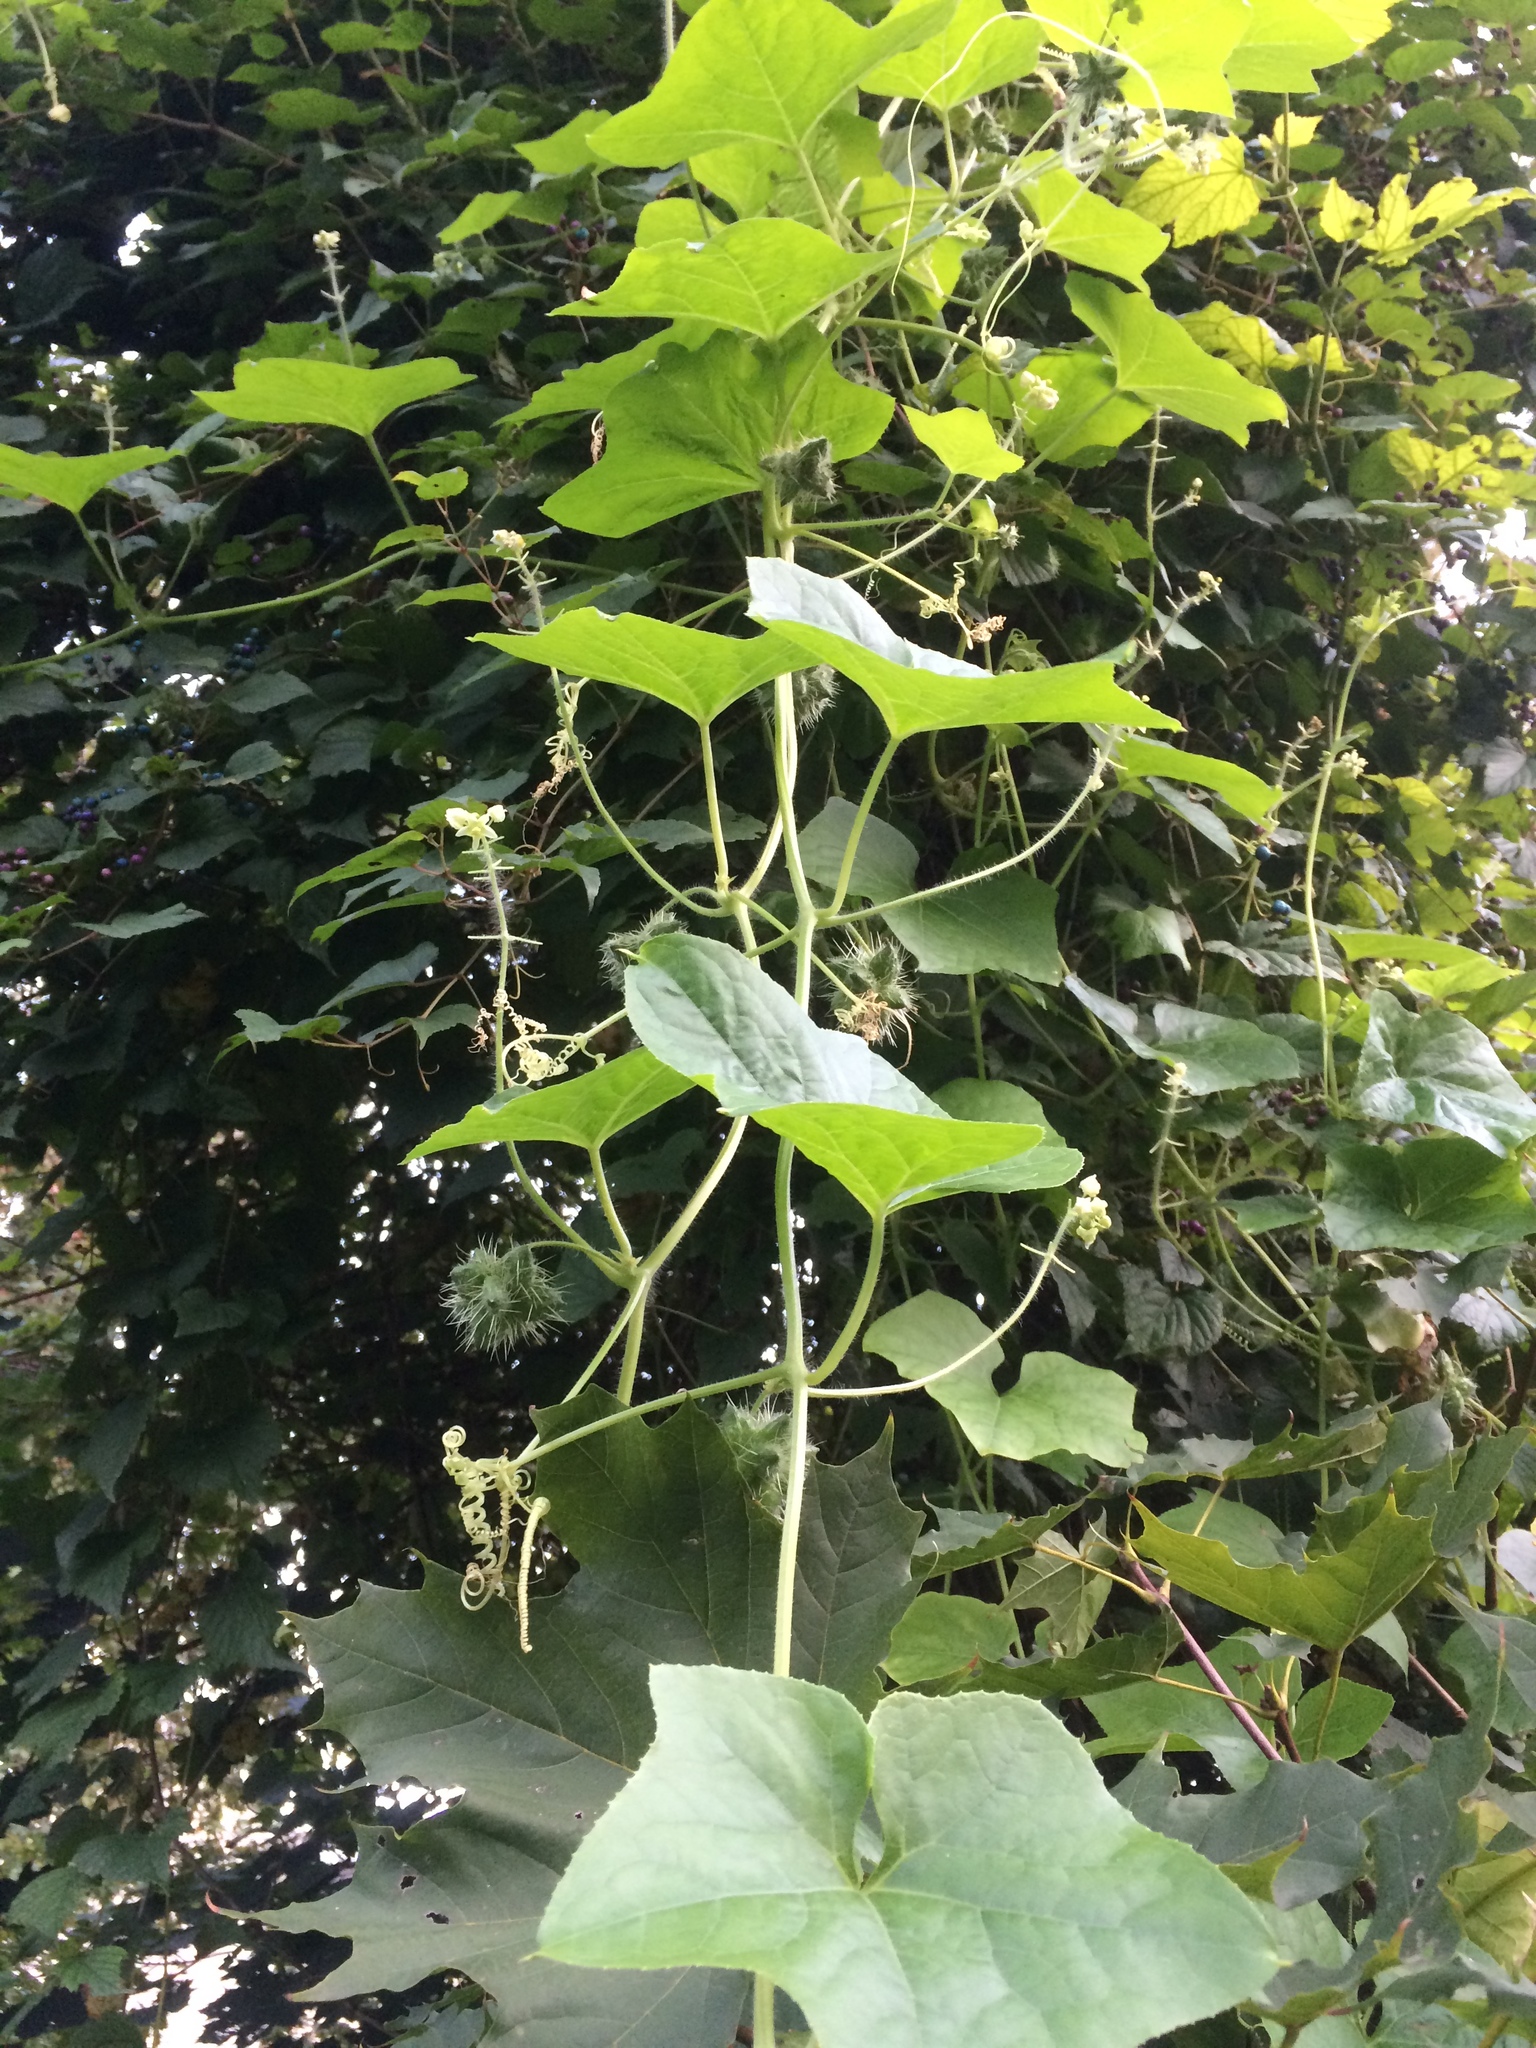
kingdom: Plantae
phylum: Tracheophyta
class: Magnoliopsida
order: Cucurbitales
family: Cucurbitaceae
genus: Sicyos
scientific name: Sicyos angulatus
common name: Angled burr cucumber
